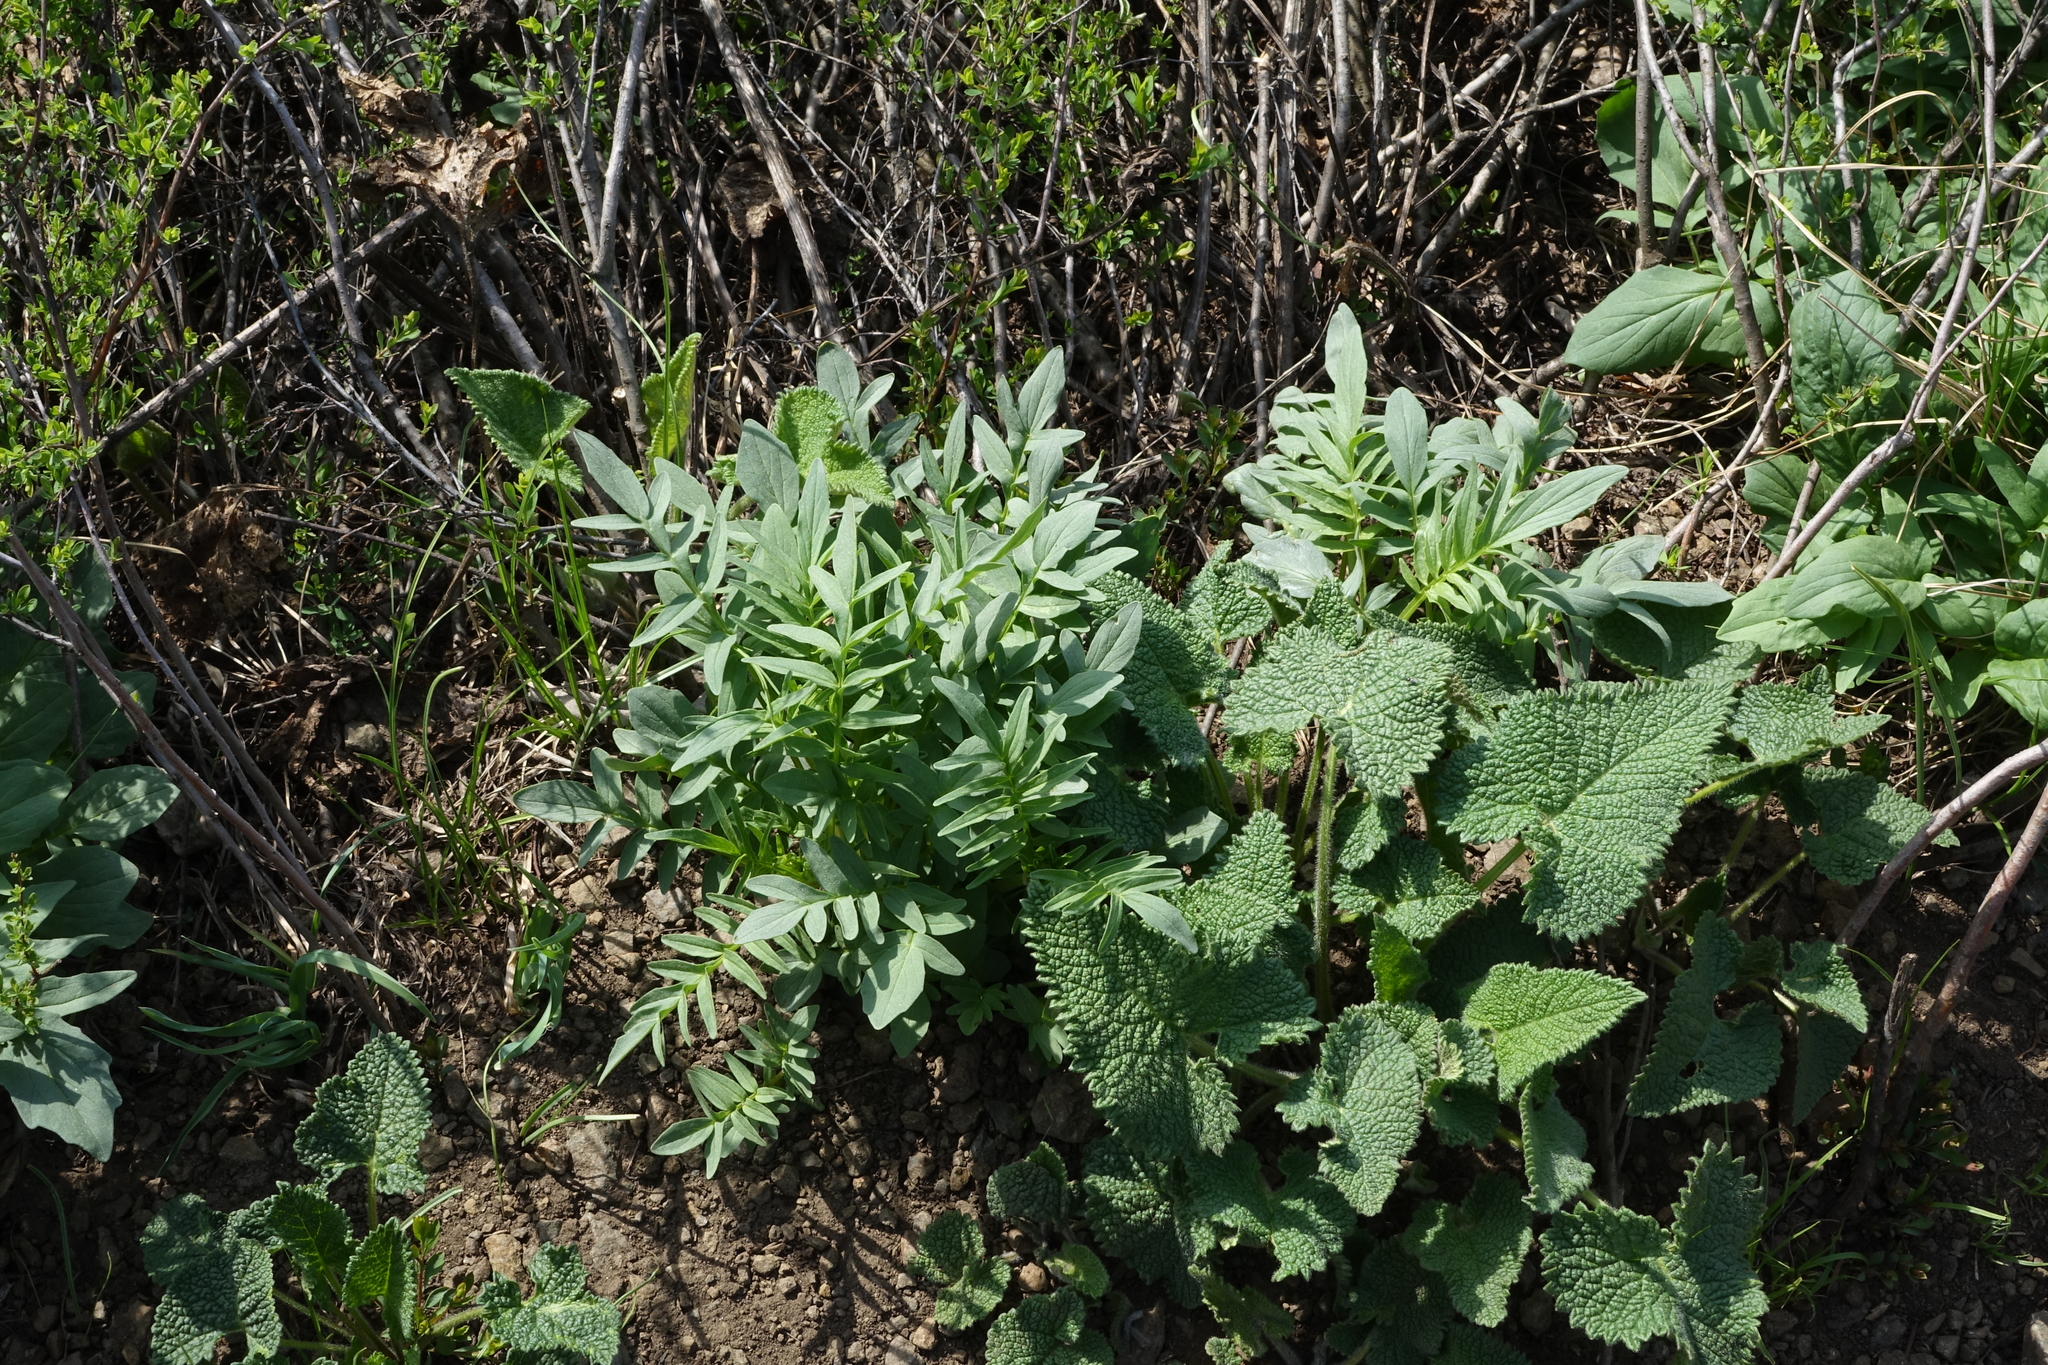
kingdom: Plantae
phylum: Tracheophyta
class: Magnoliopsida
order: Lamiales
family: Lamiaceae
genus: Phlomoides
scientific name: Phlomoides tuberosa
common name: Tuberous jerusalem sage
